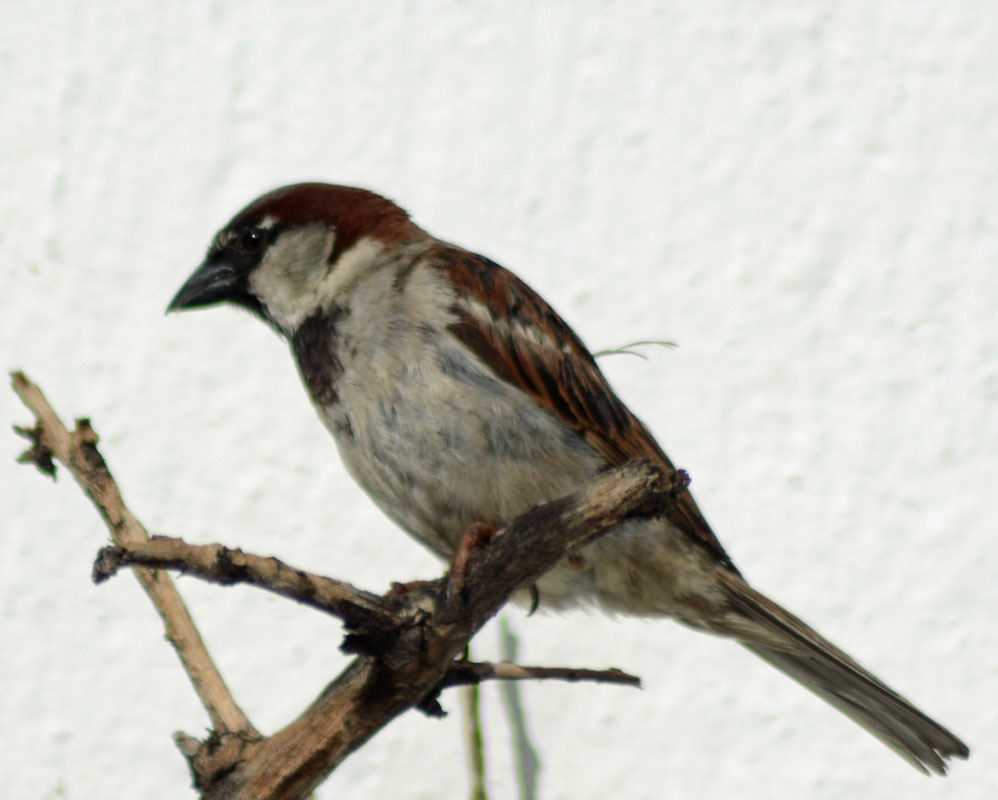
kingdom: Animalia
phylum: Chordata
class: Aves
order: Passeriformes
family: Passeridae
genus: Passer
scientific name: Passer domesticus
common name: House sparrow
